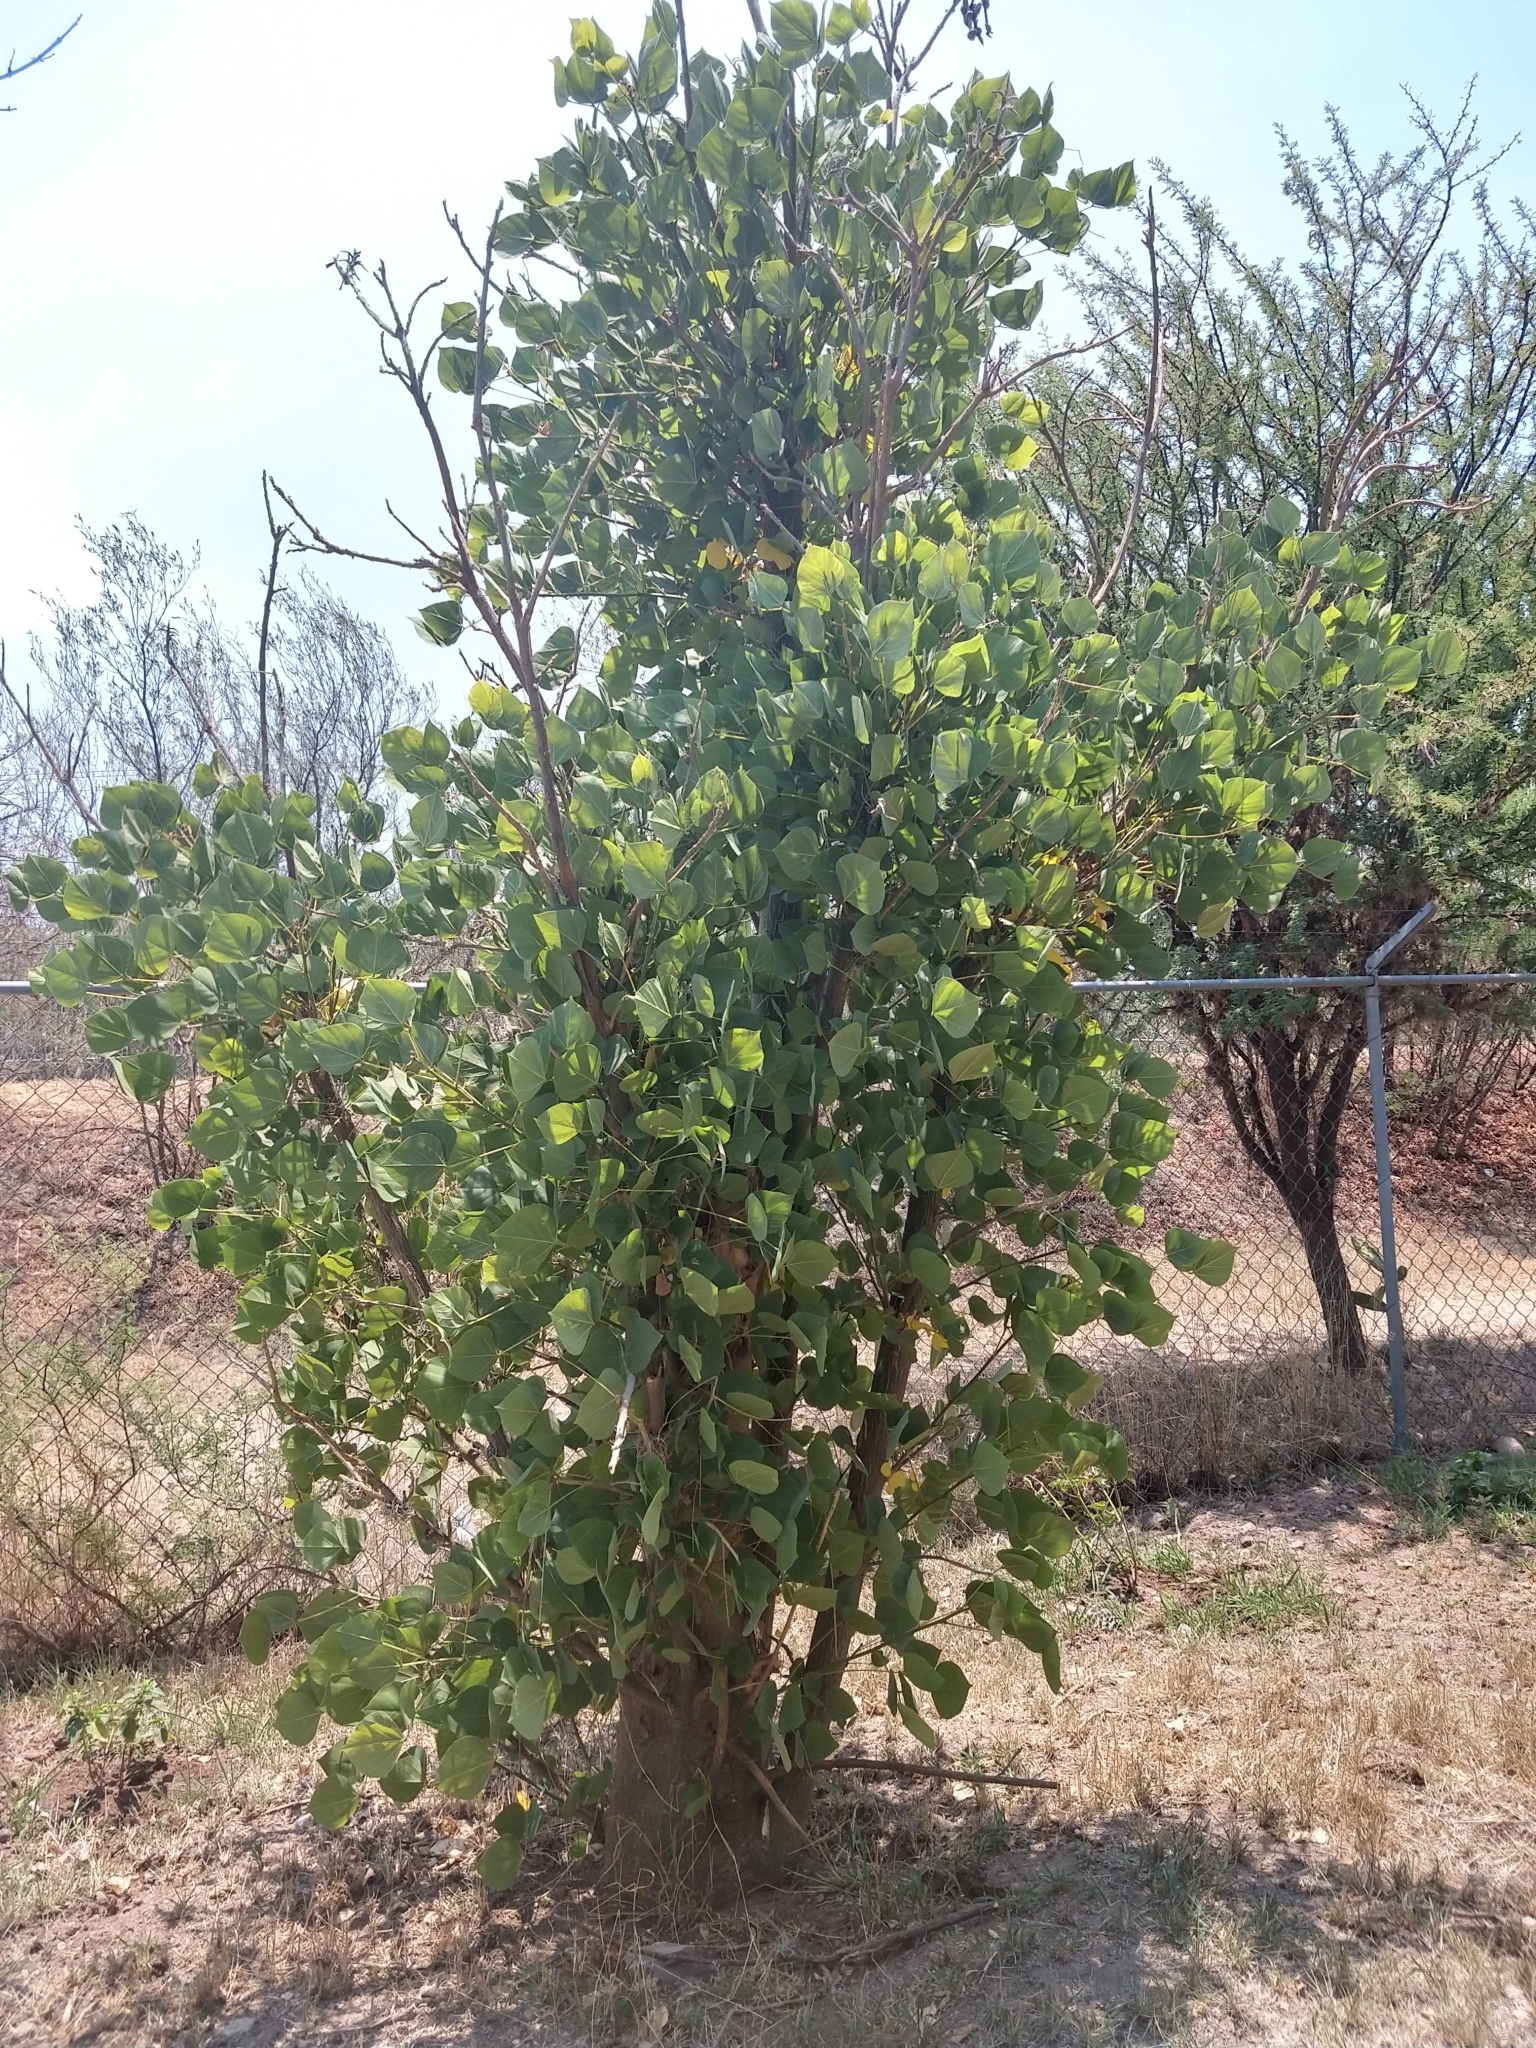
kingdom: Plantae
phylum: Tracheophyta
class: Magnoliopsida
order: Fabales
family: Fabaceae
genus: Erythrina
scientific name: Erythrina americana
